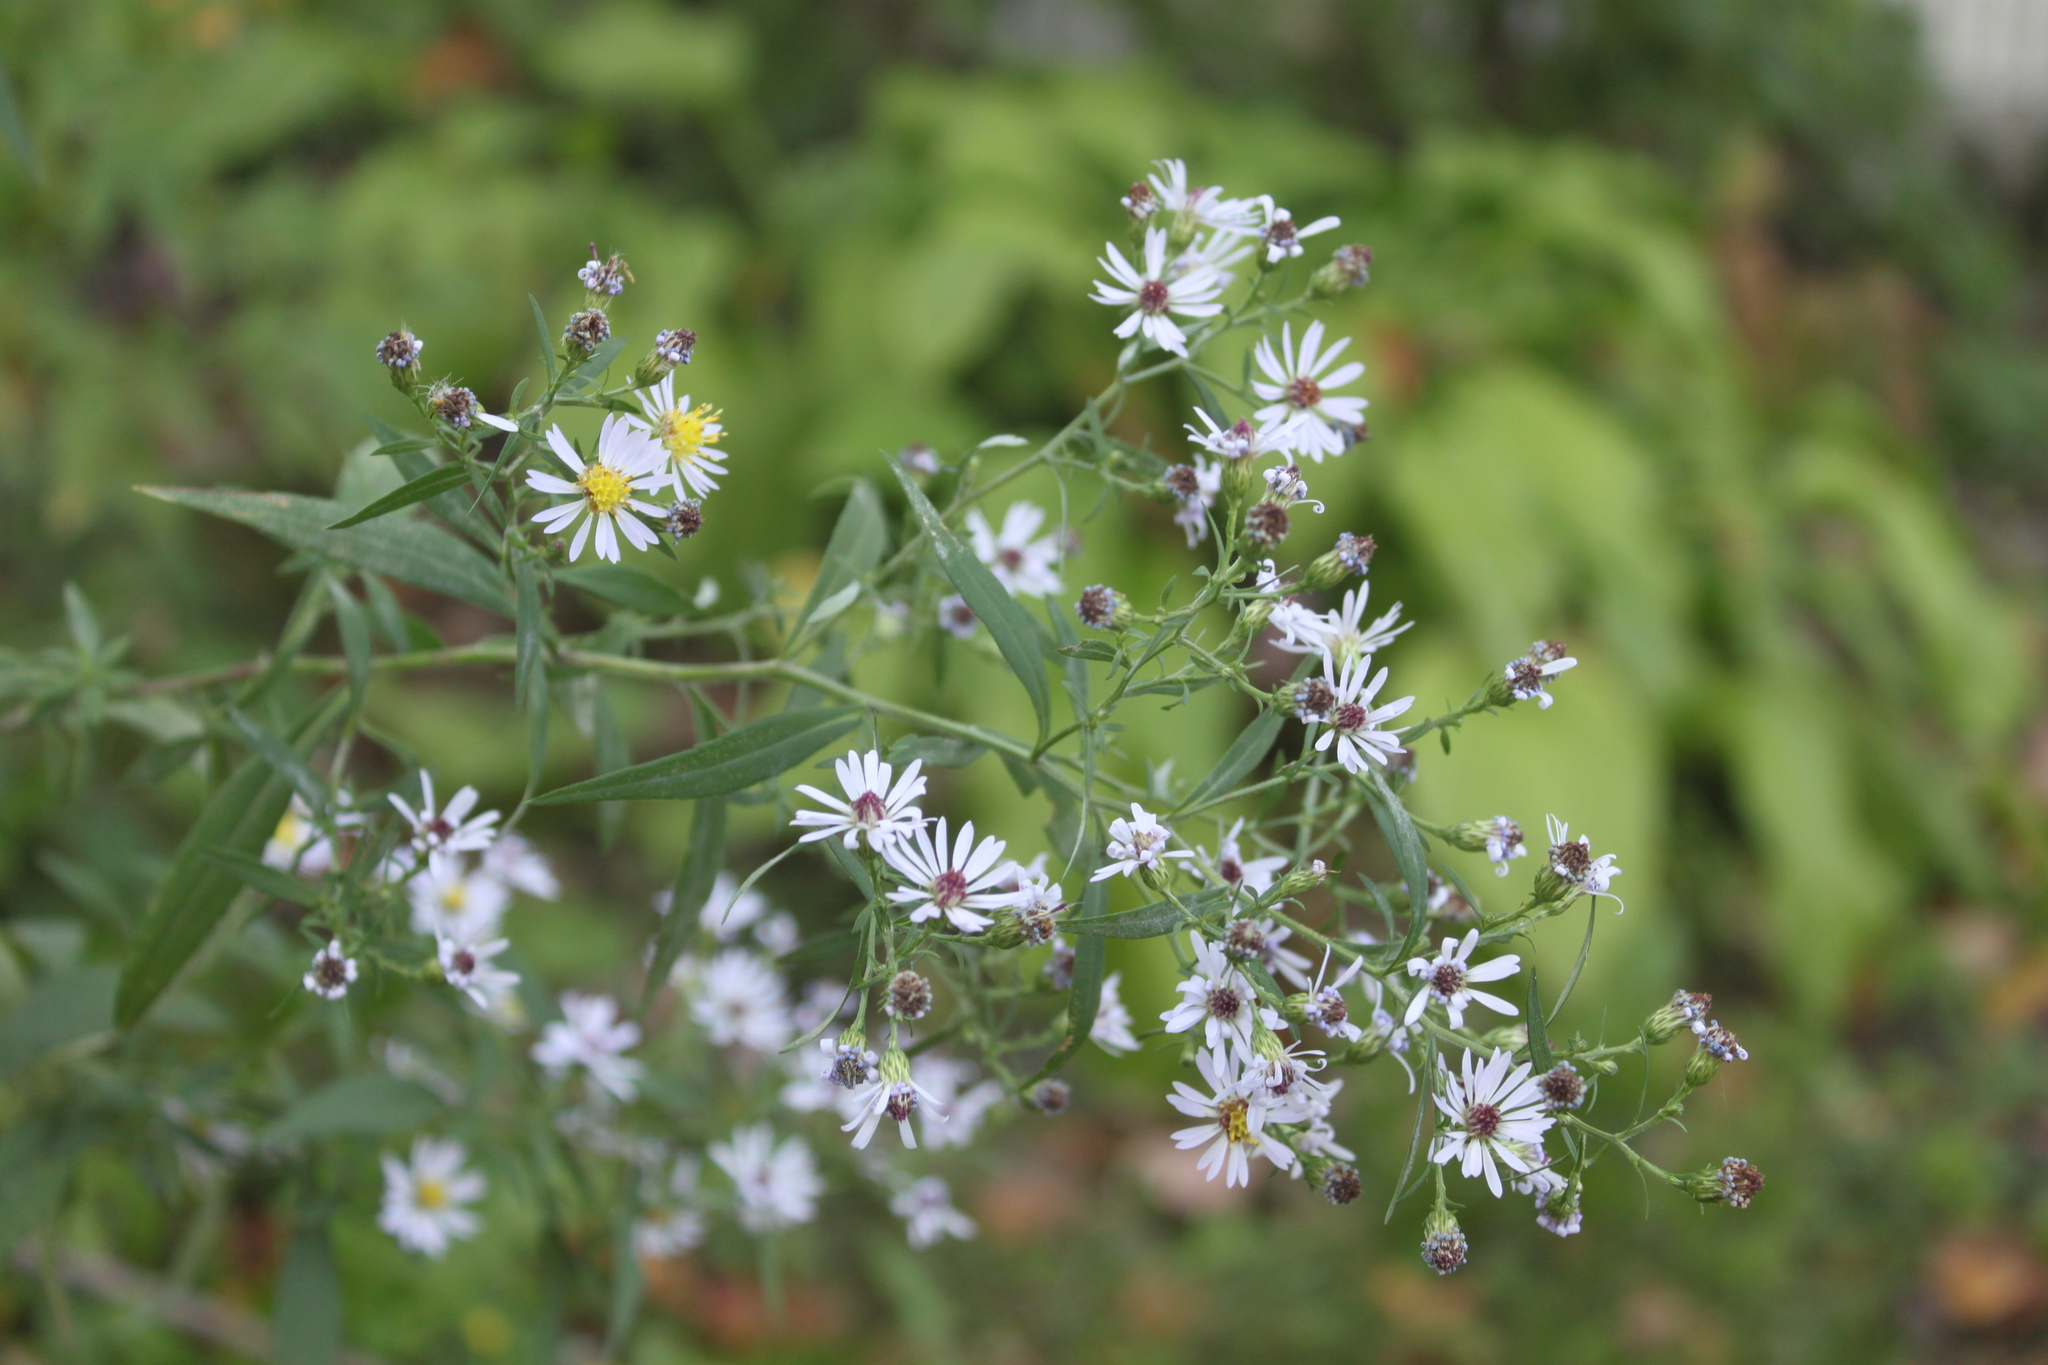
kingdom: Plantae
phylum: Tracheophyta
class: Magnoliopsida
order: Asterales
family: Asteraceae
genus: Symphyotrichum
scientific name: Symphyotrichum lanceolatum
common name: Panicled aster
